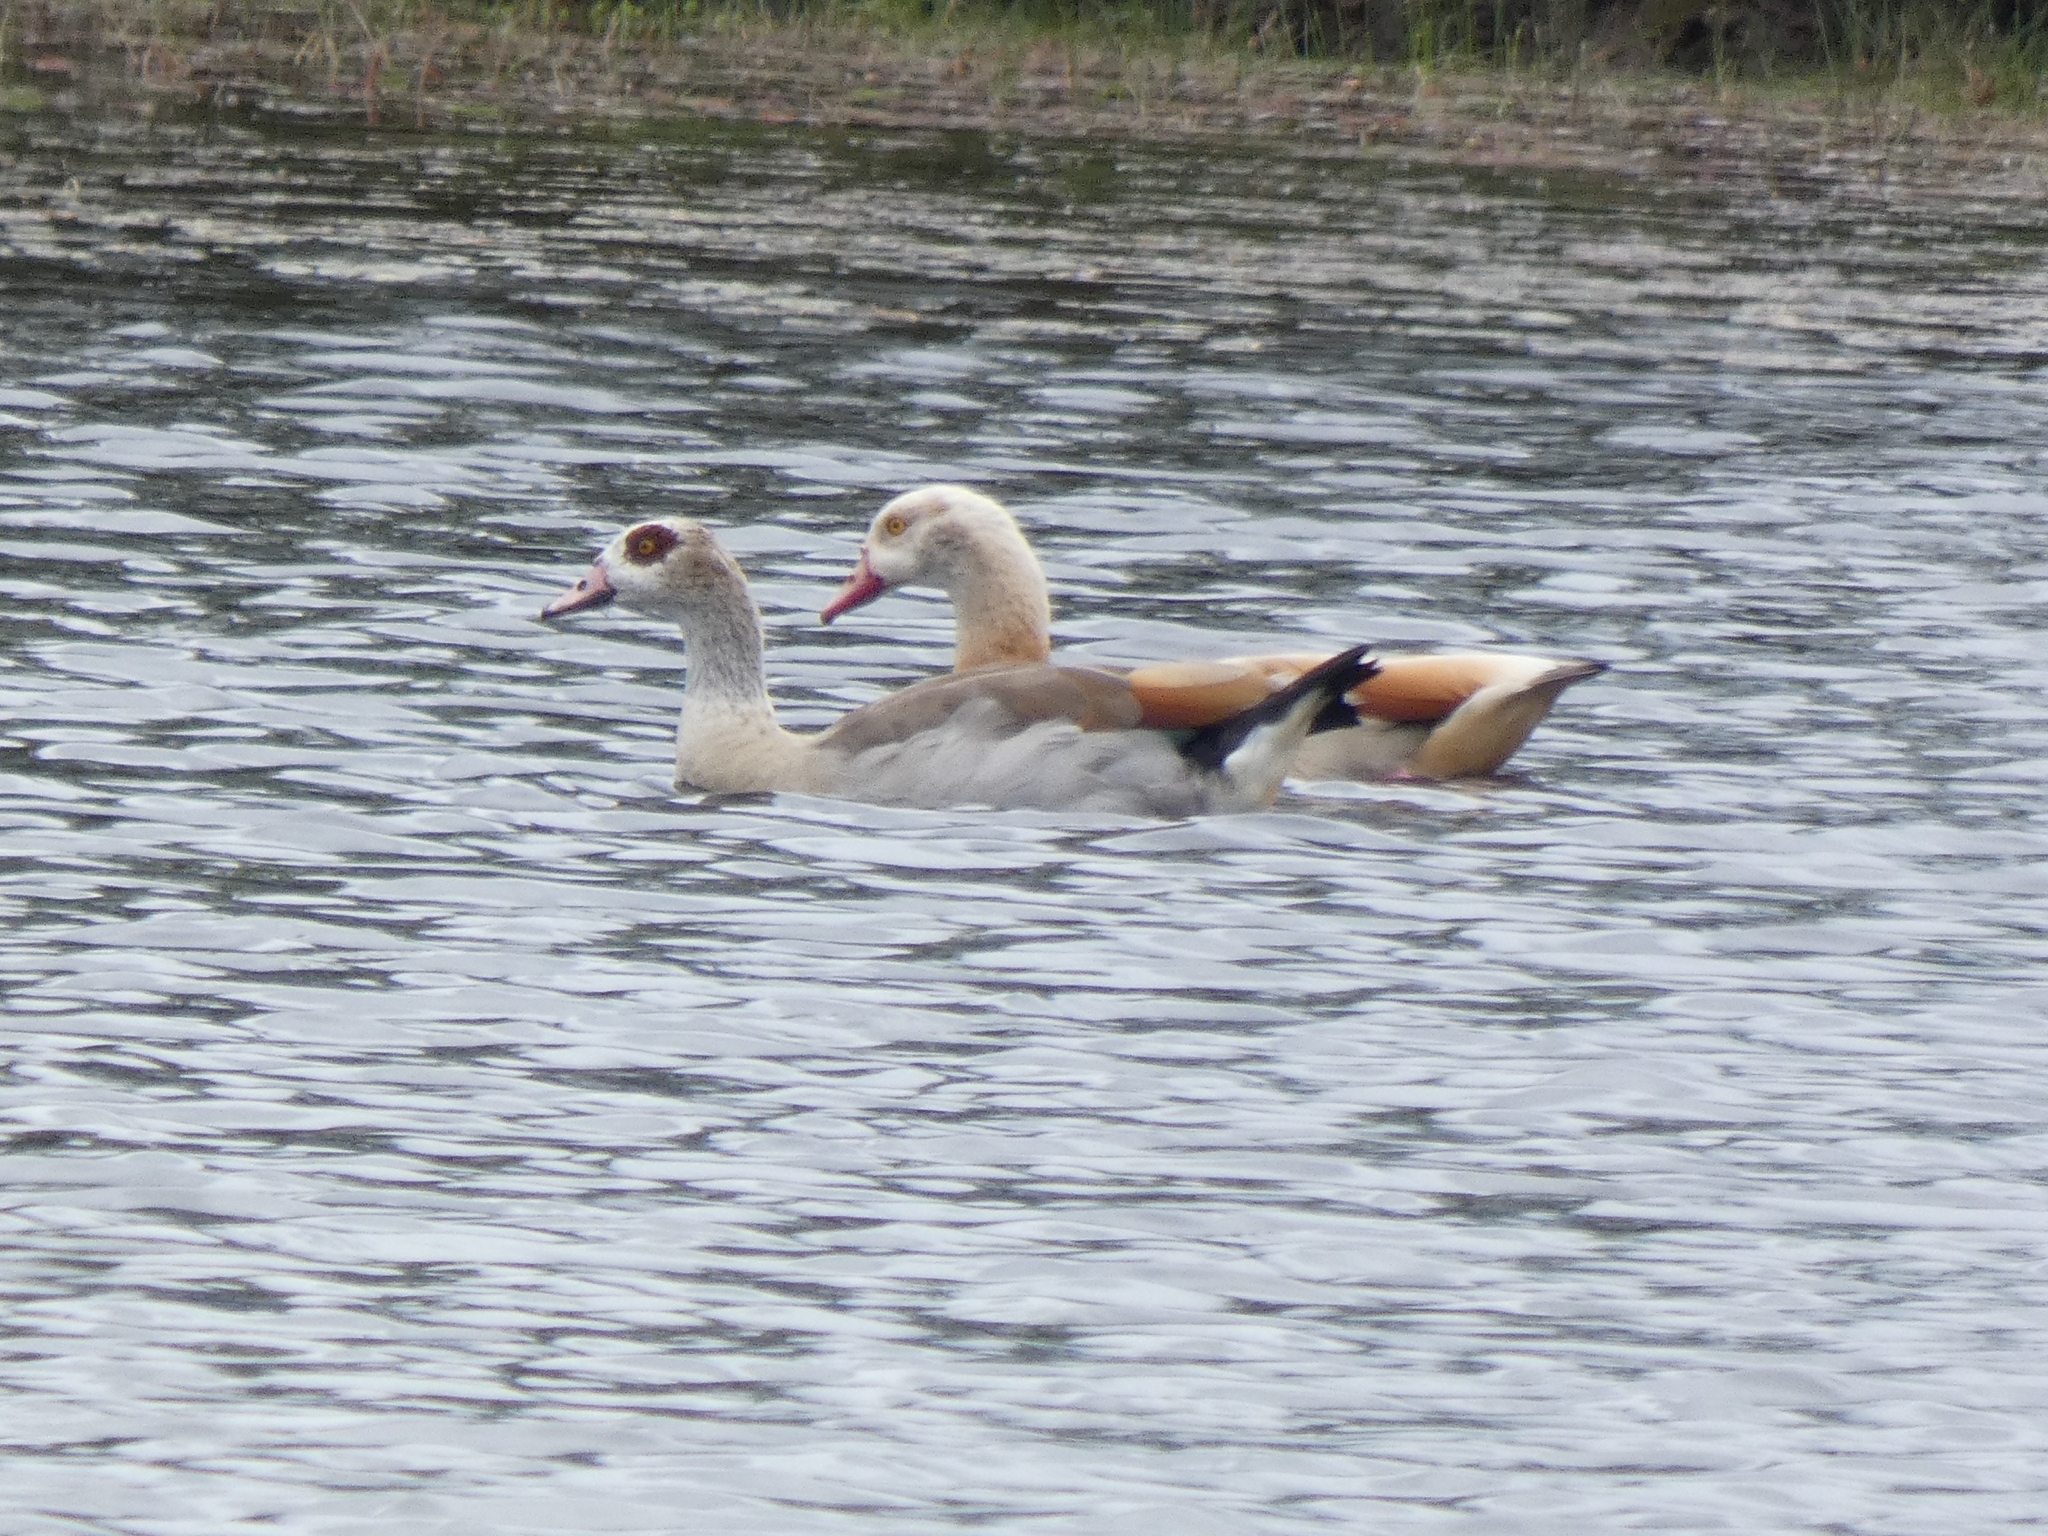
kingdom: Animalia
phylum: Chordata
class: Aves
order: Anseriformes
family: Anatidae
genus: Alopochen
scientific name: Alopochen aegyptiaca
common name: Egyptian goose
